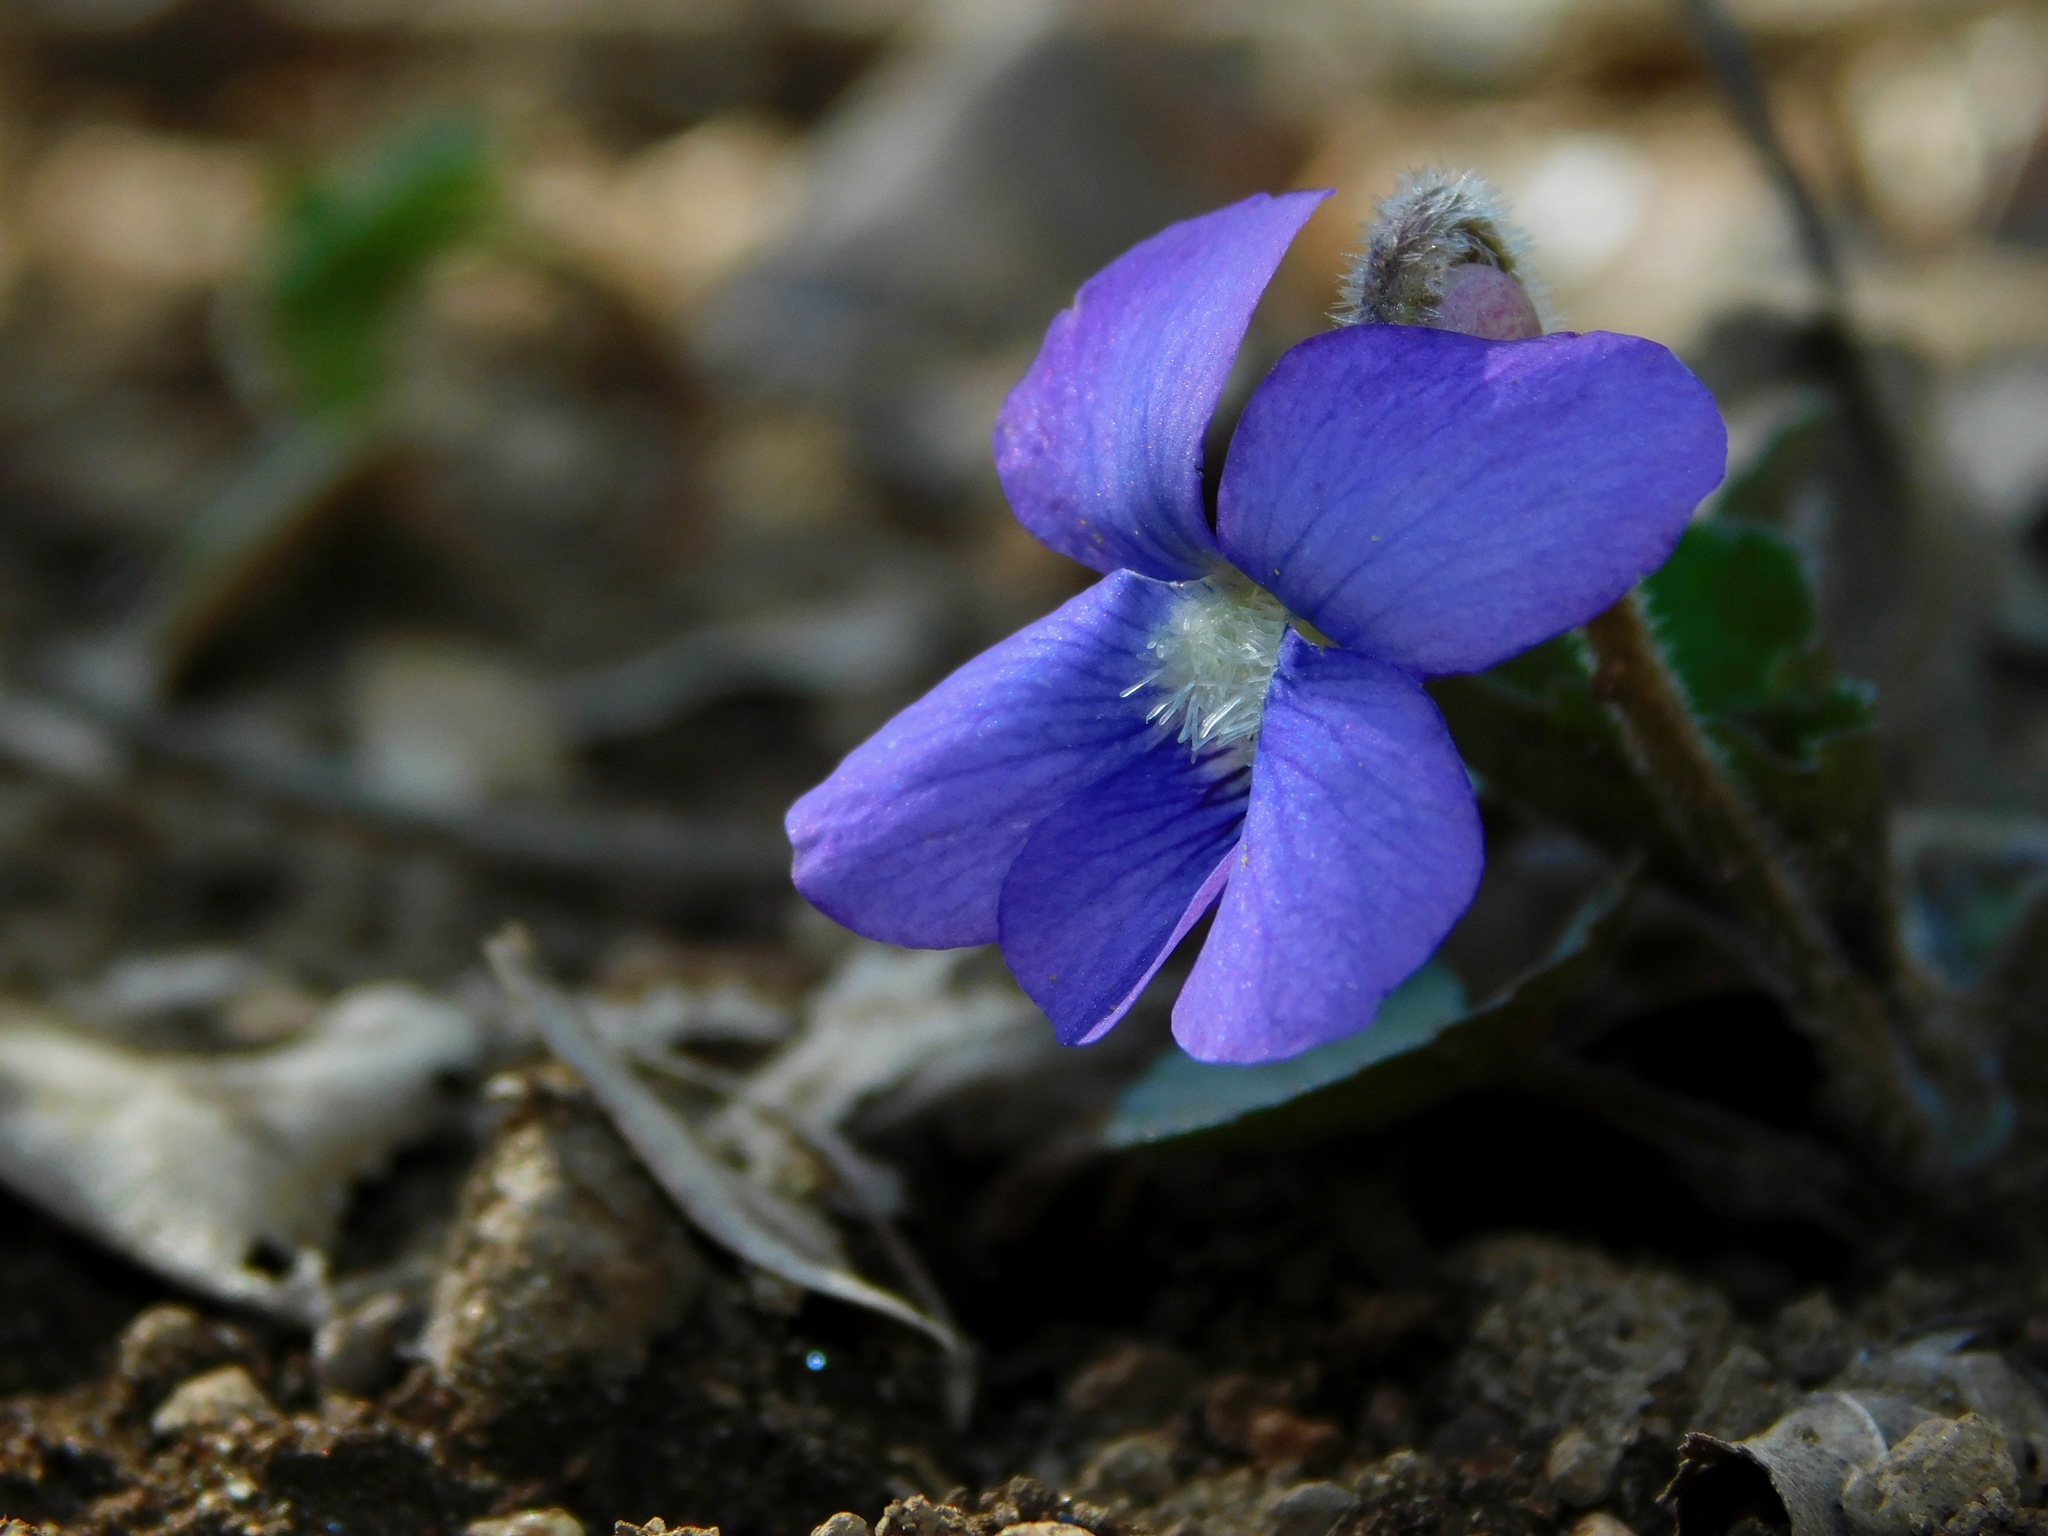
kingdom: Plantae
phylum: Tracheophyta
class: Magnoliopsida
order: Malpighiales
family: Violaceae
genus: Viola
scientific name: Viola hirsutula
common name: Southern wood violet
